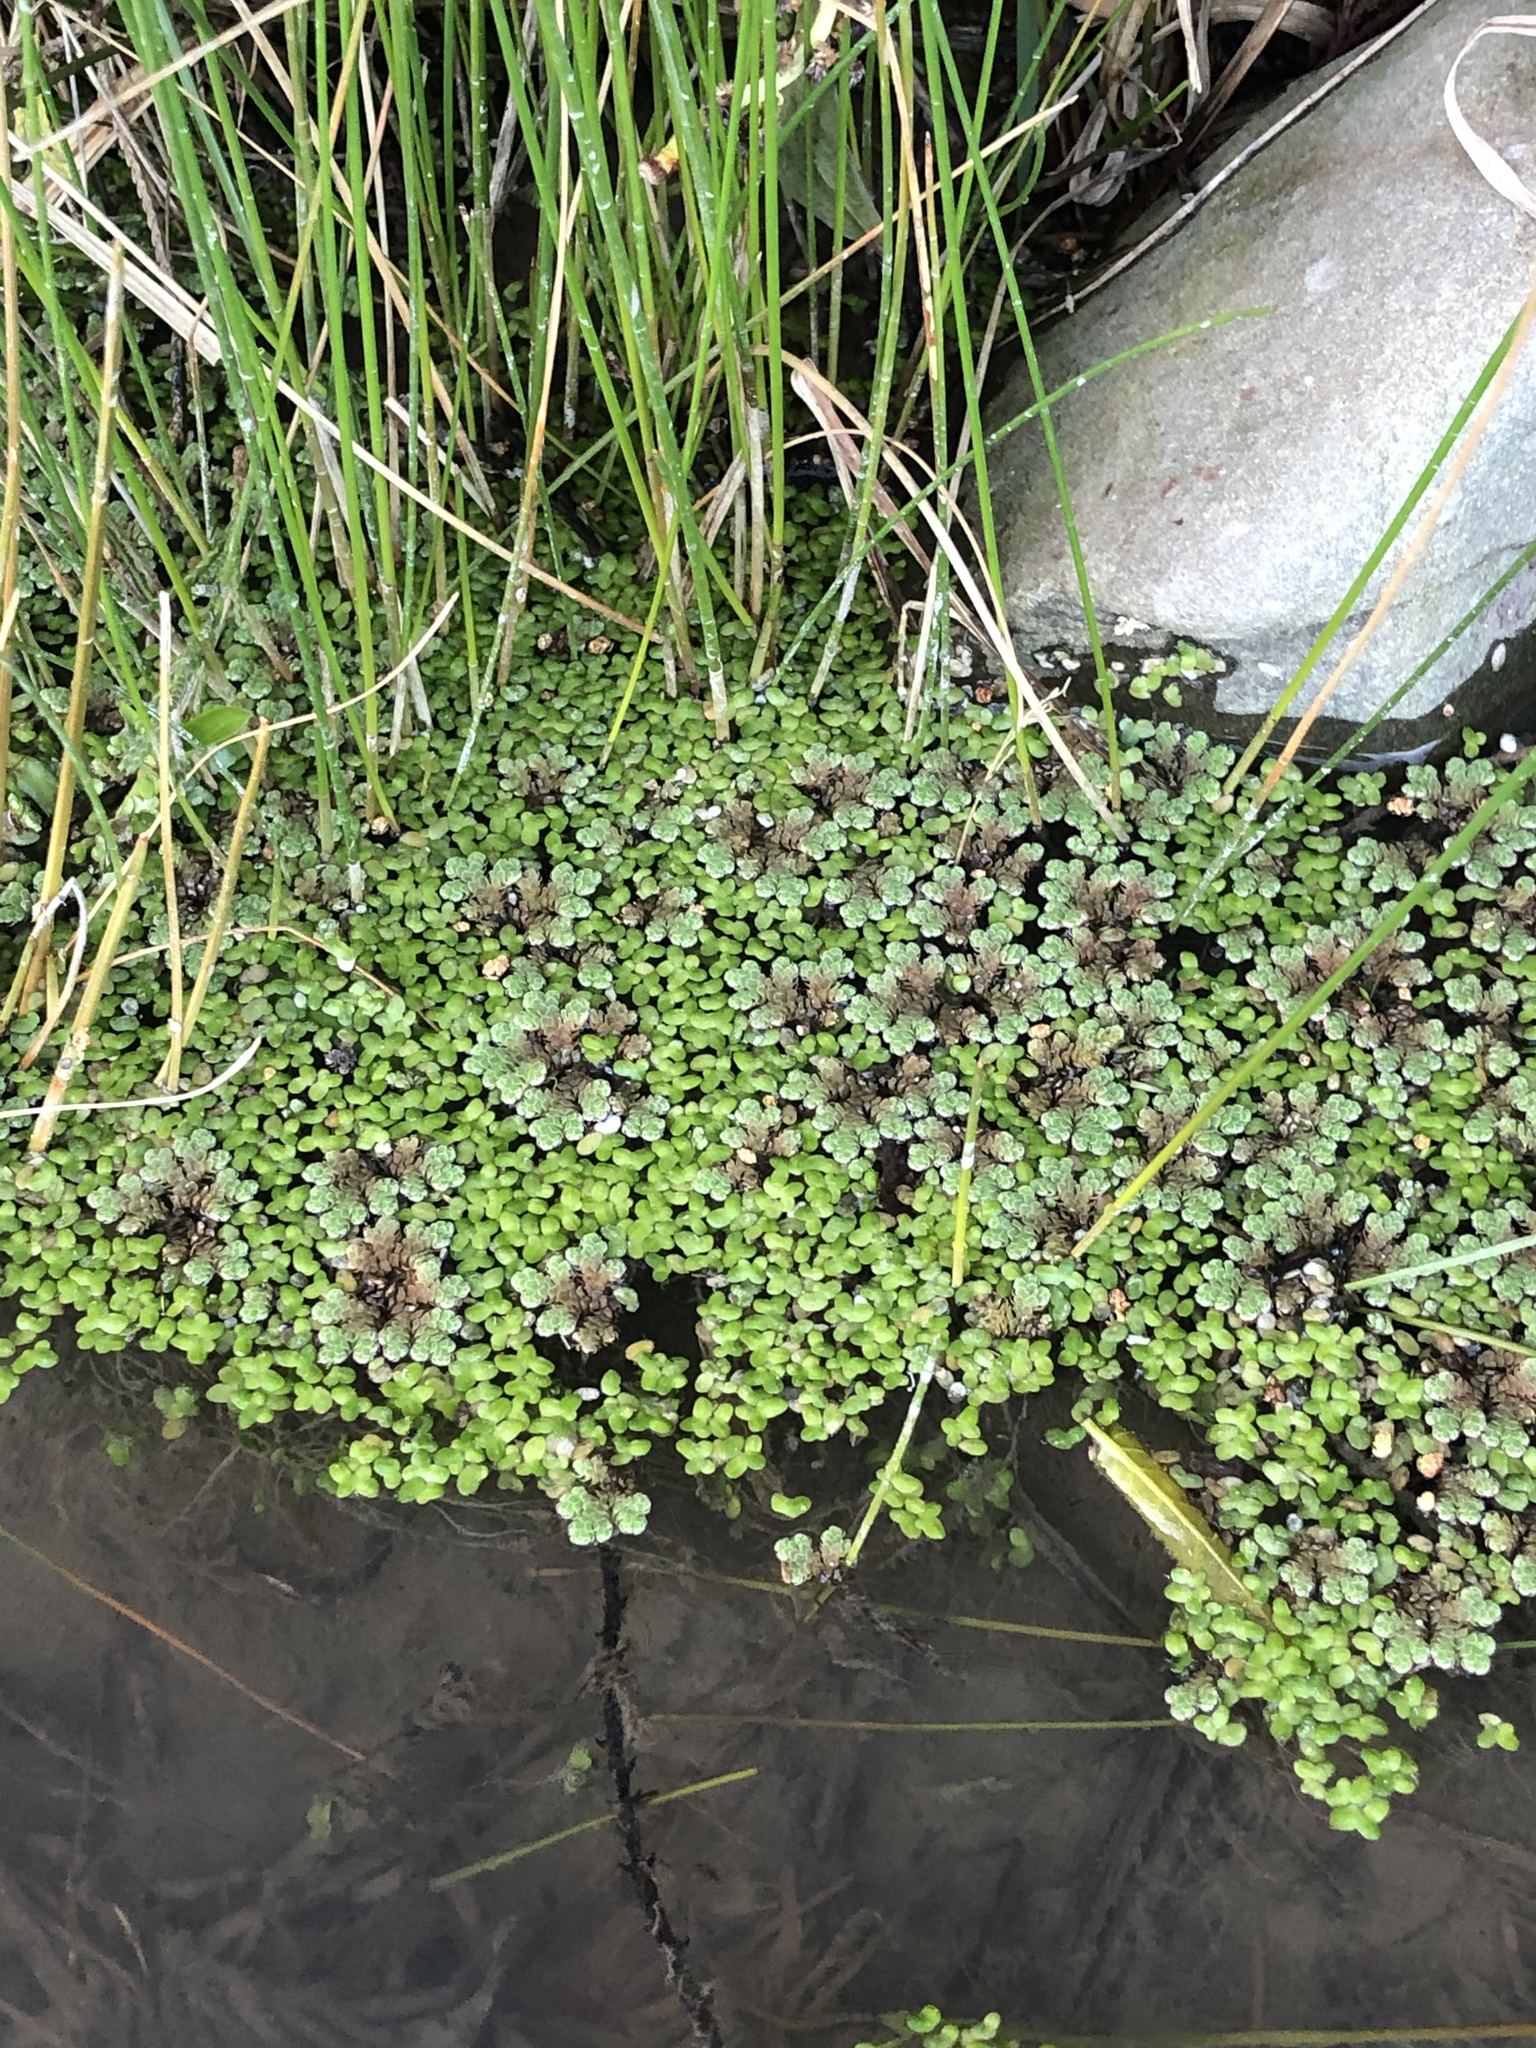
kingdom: Plantae
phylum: Tracheophyta
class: Polypodiopsida
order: Salviniales
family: Salviniaceae
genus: Azolla
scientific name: Azolla rubra
